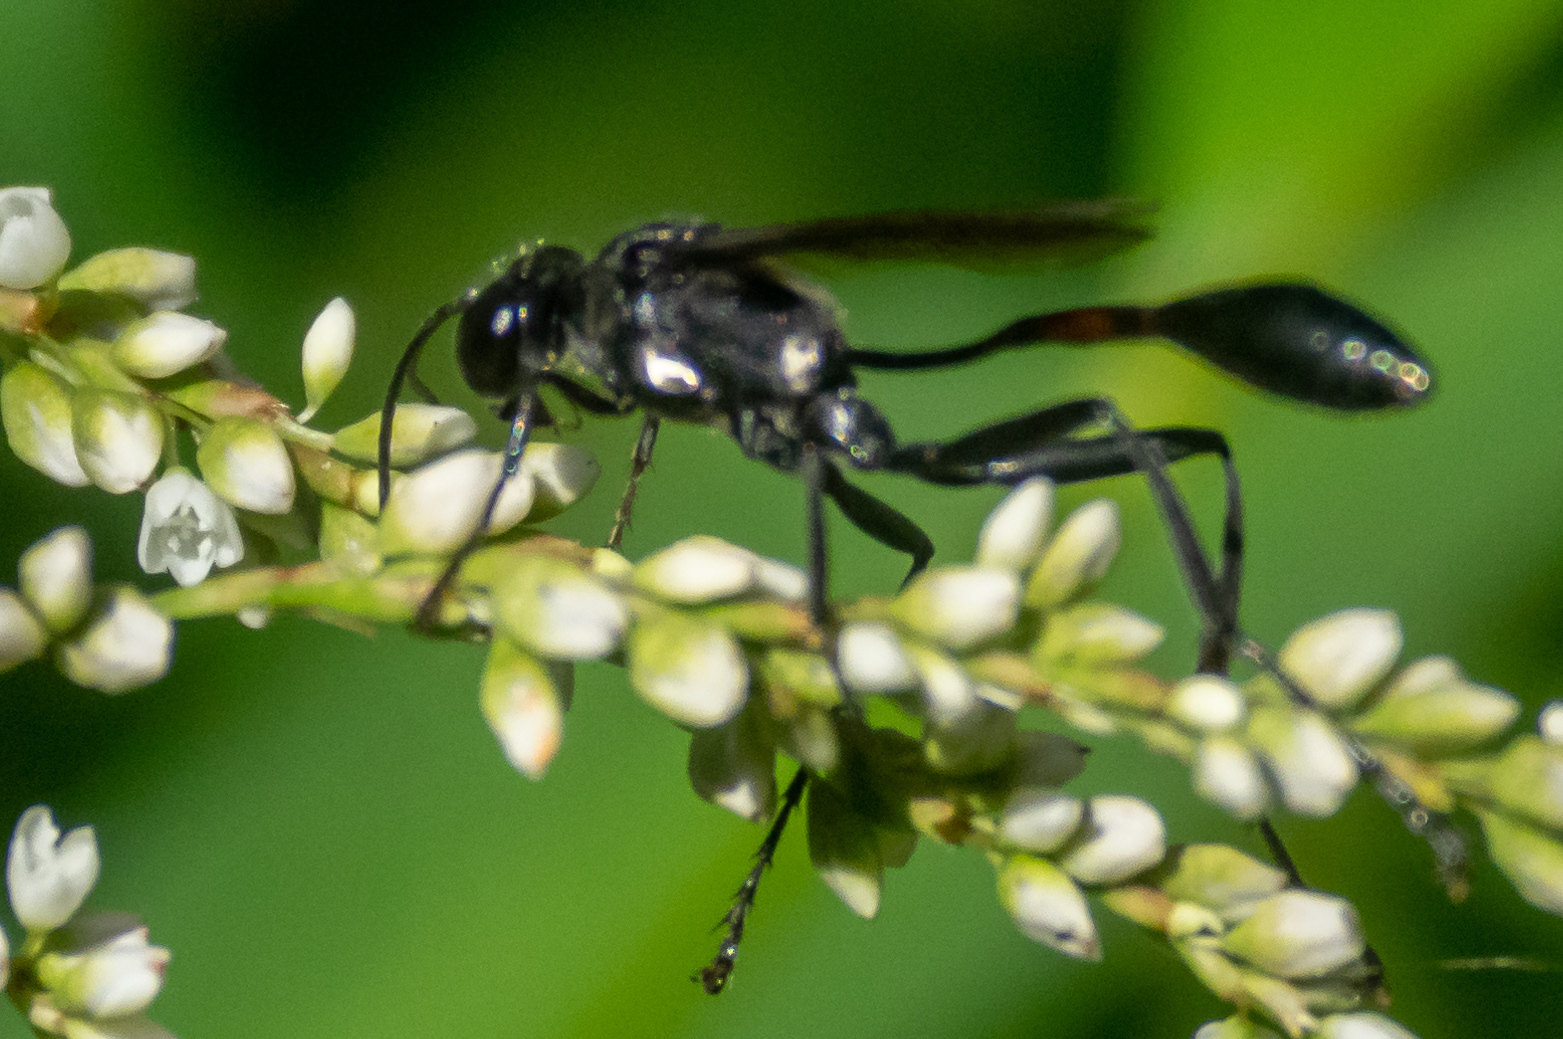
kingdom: Animalia
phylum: Arthropoda
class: Insecta
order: Hymenoptera
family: Sphecidae
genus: Eremnophila
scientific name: Eremnophila aureonotata
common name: Gold-marked thread-waisted wasp
